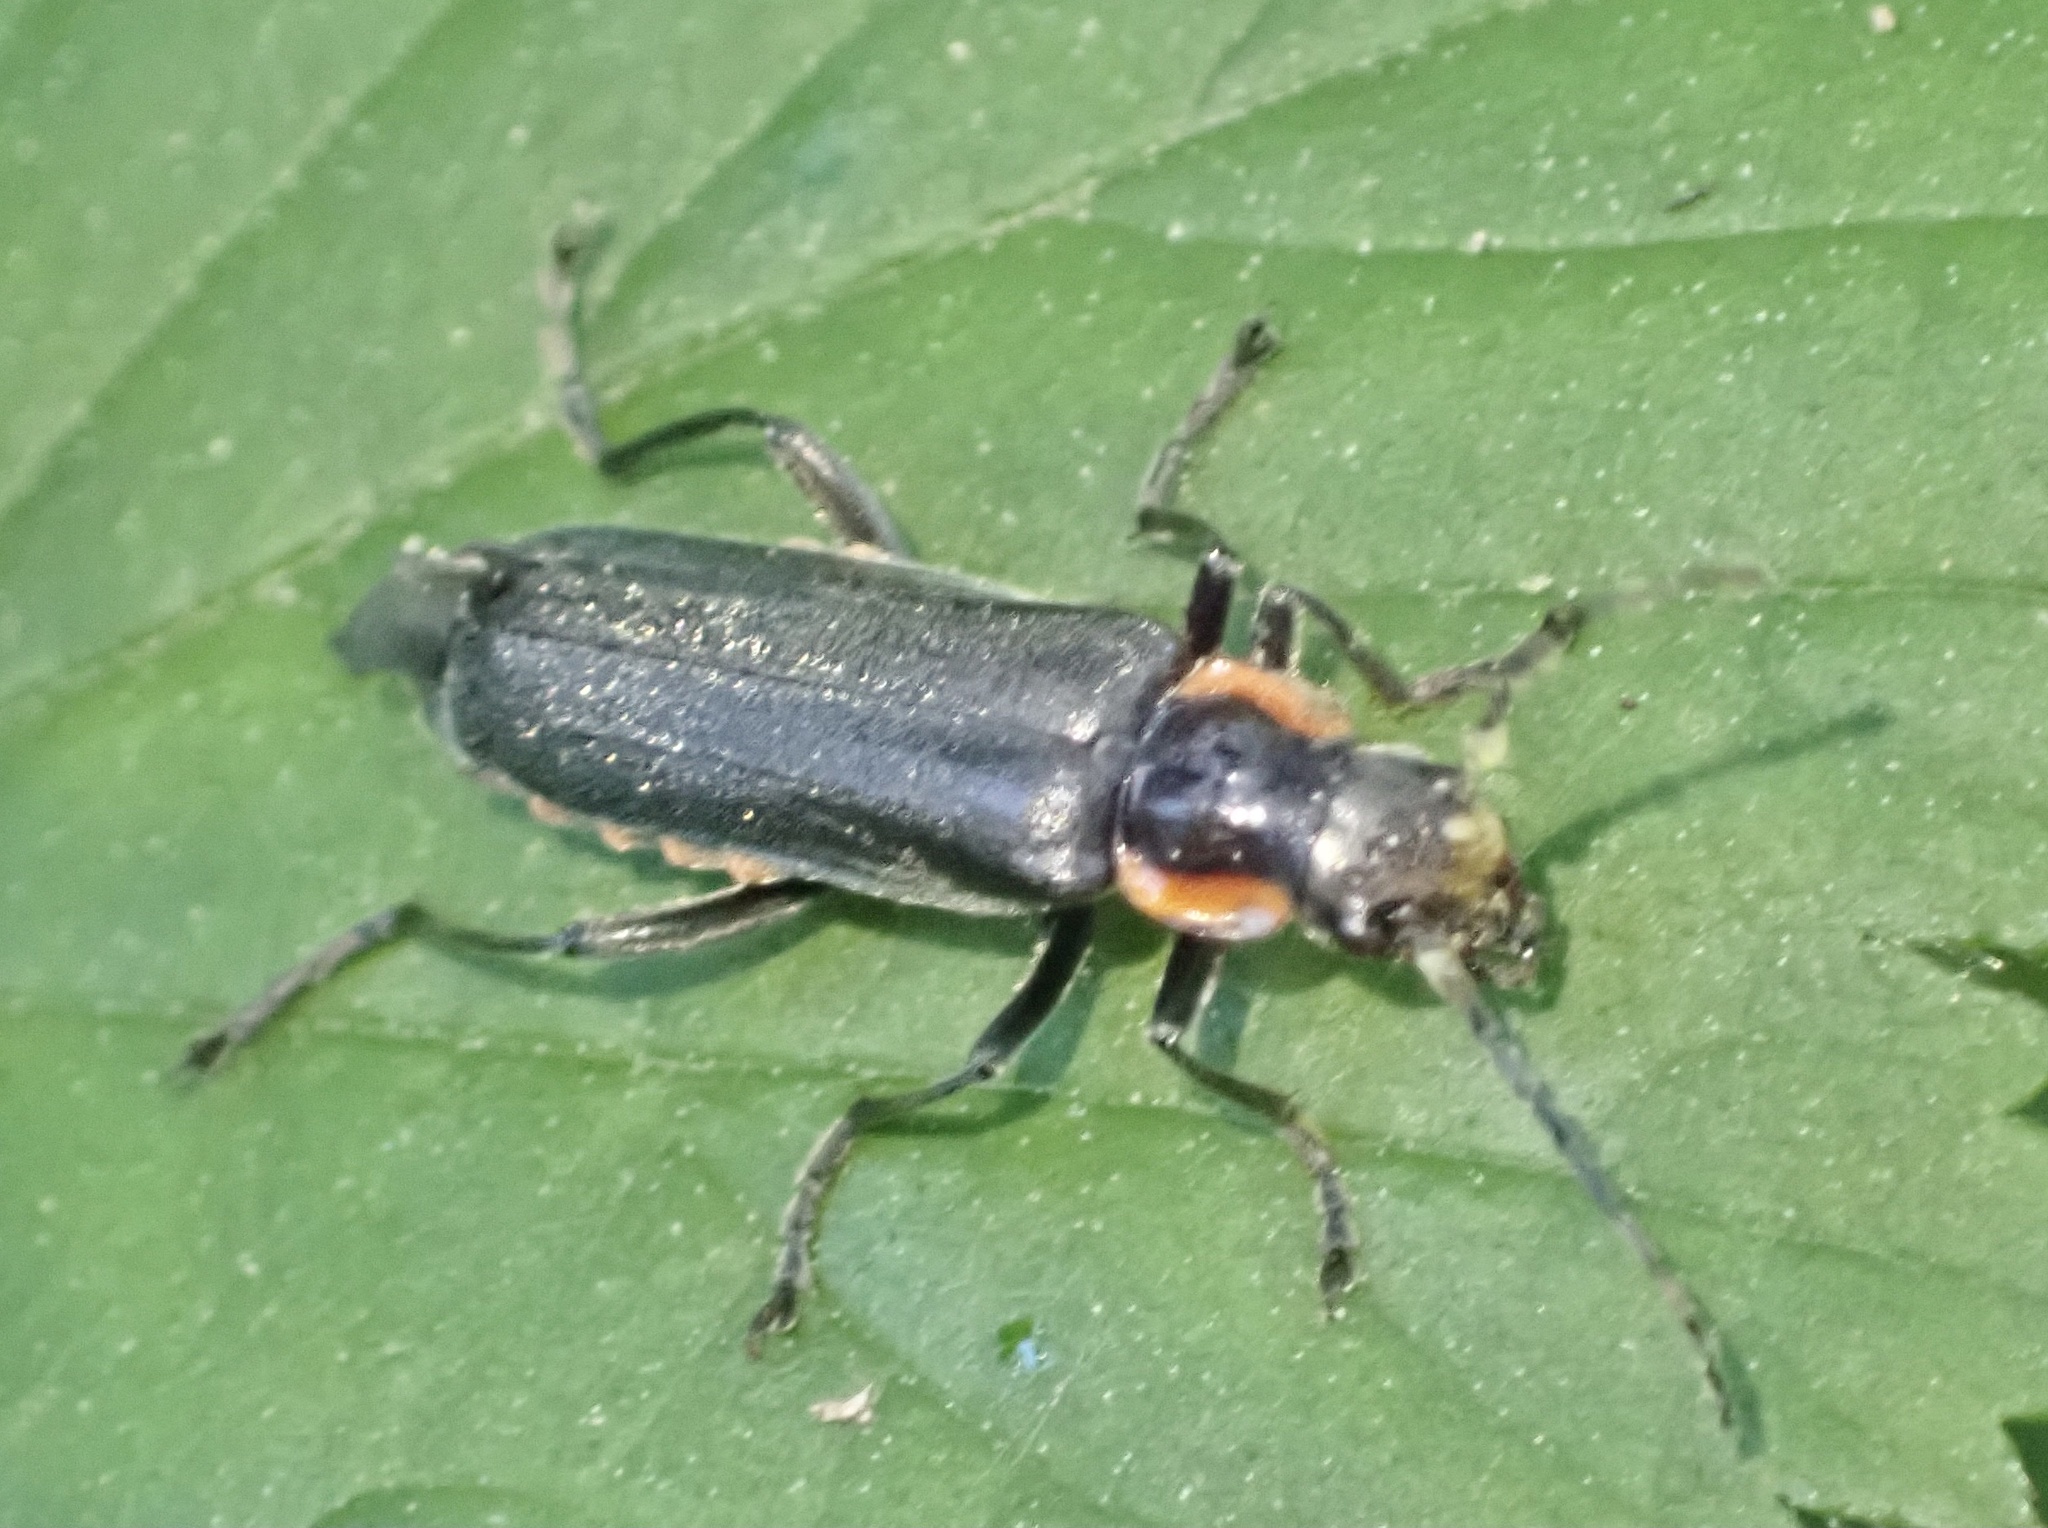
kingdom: Animalia
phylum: Arthropoda
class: Insecta
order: Coleoptera
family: Cantharidae
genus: Cantharis
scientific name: Cantharis obscura
